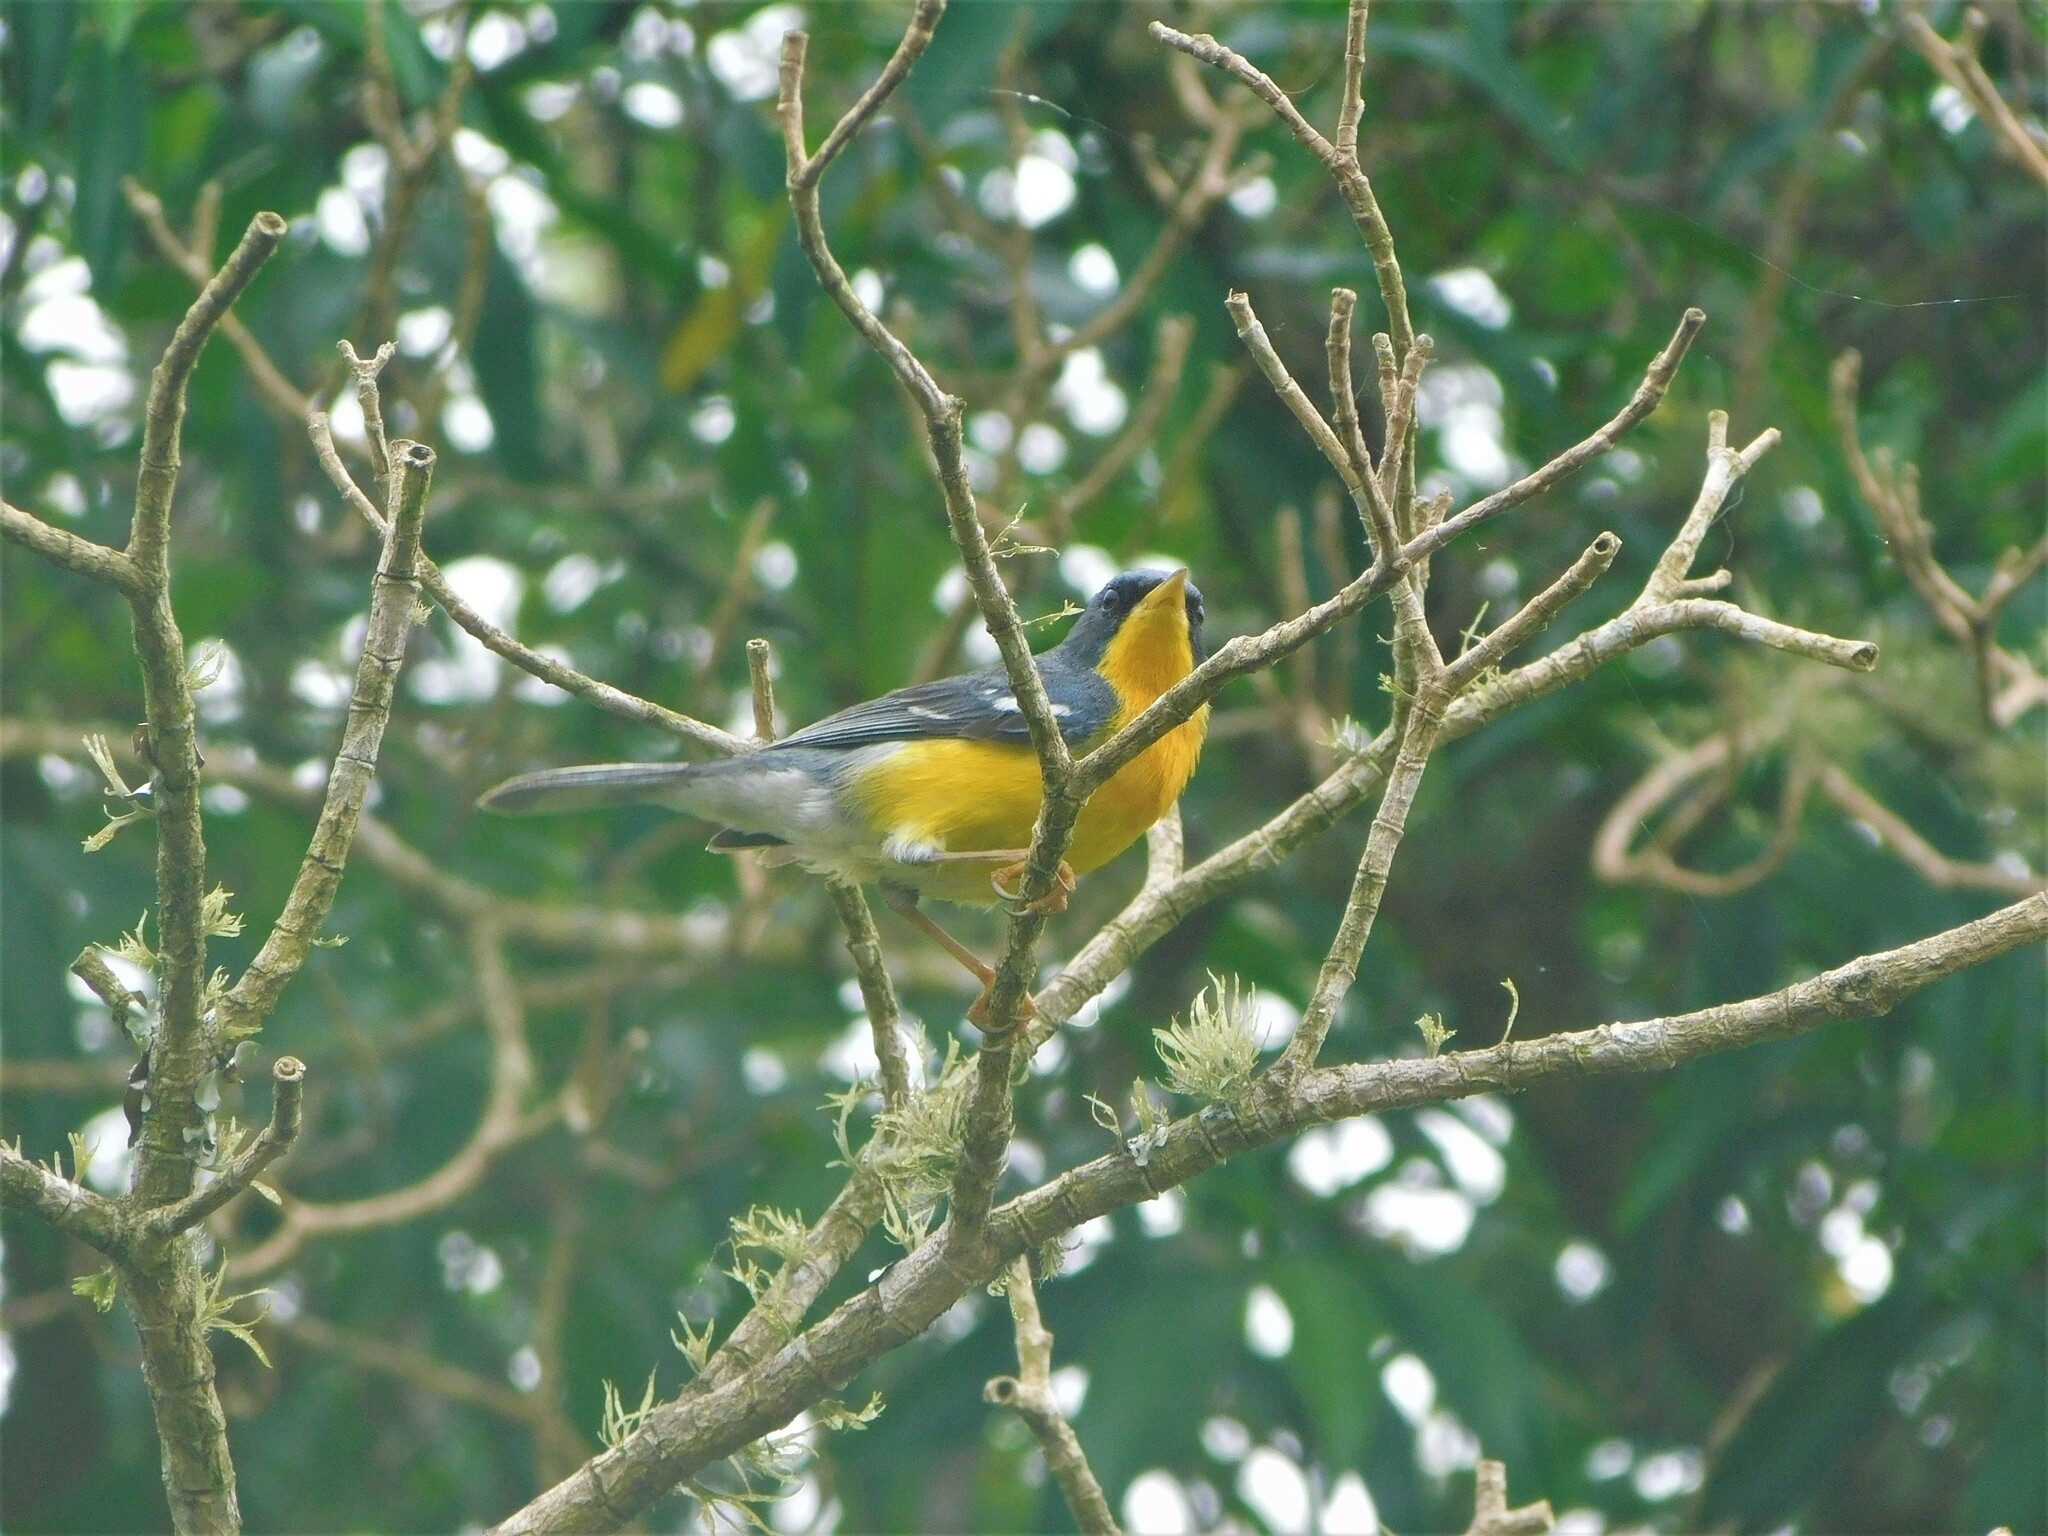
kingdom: Animalia
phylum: Chordata
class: Aves
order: Passeriformes
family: Parulidae
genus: Setophaga
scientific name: Setophaga pitiayumi
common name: Tropical parula
